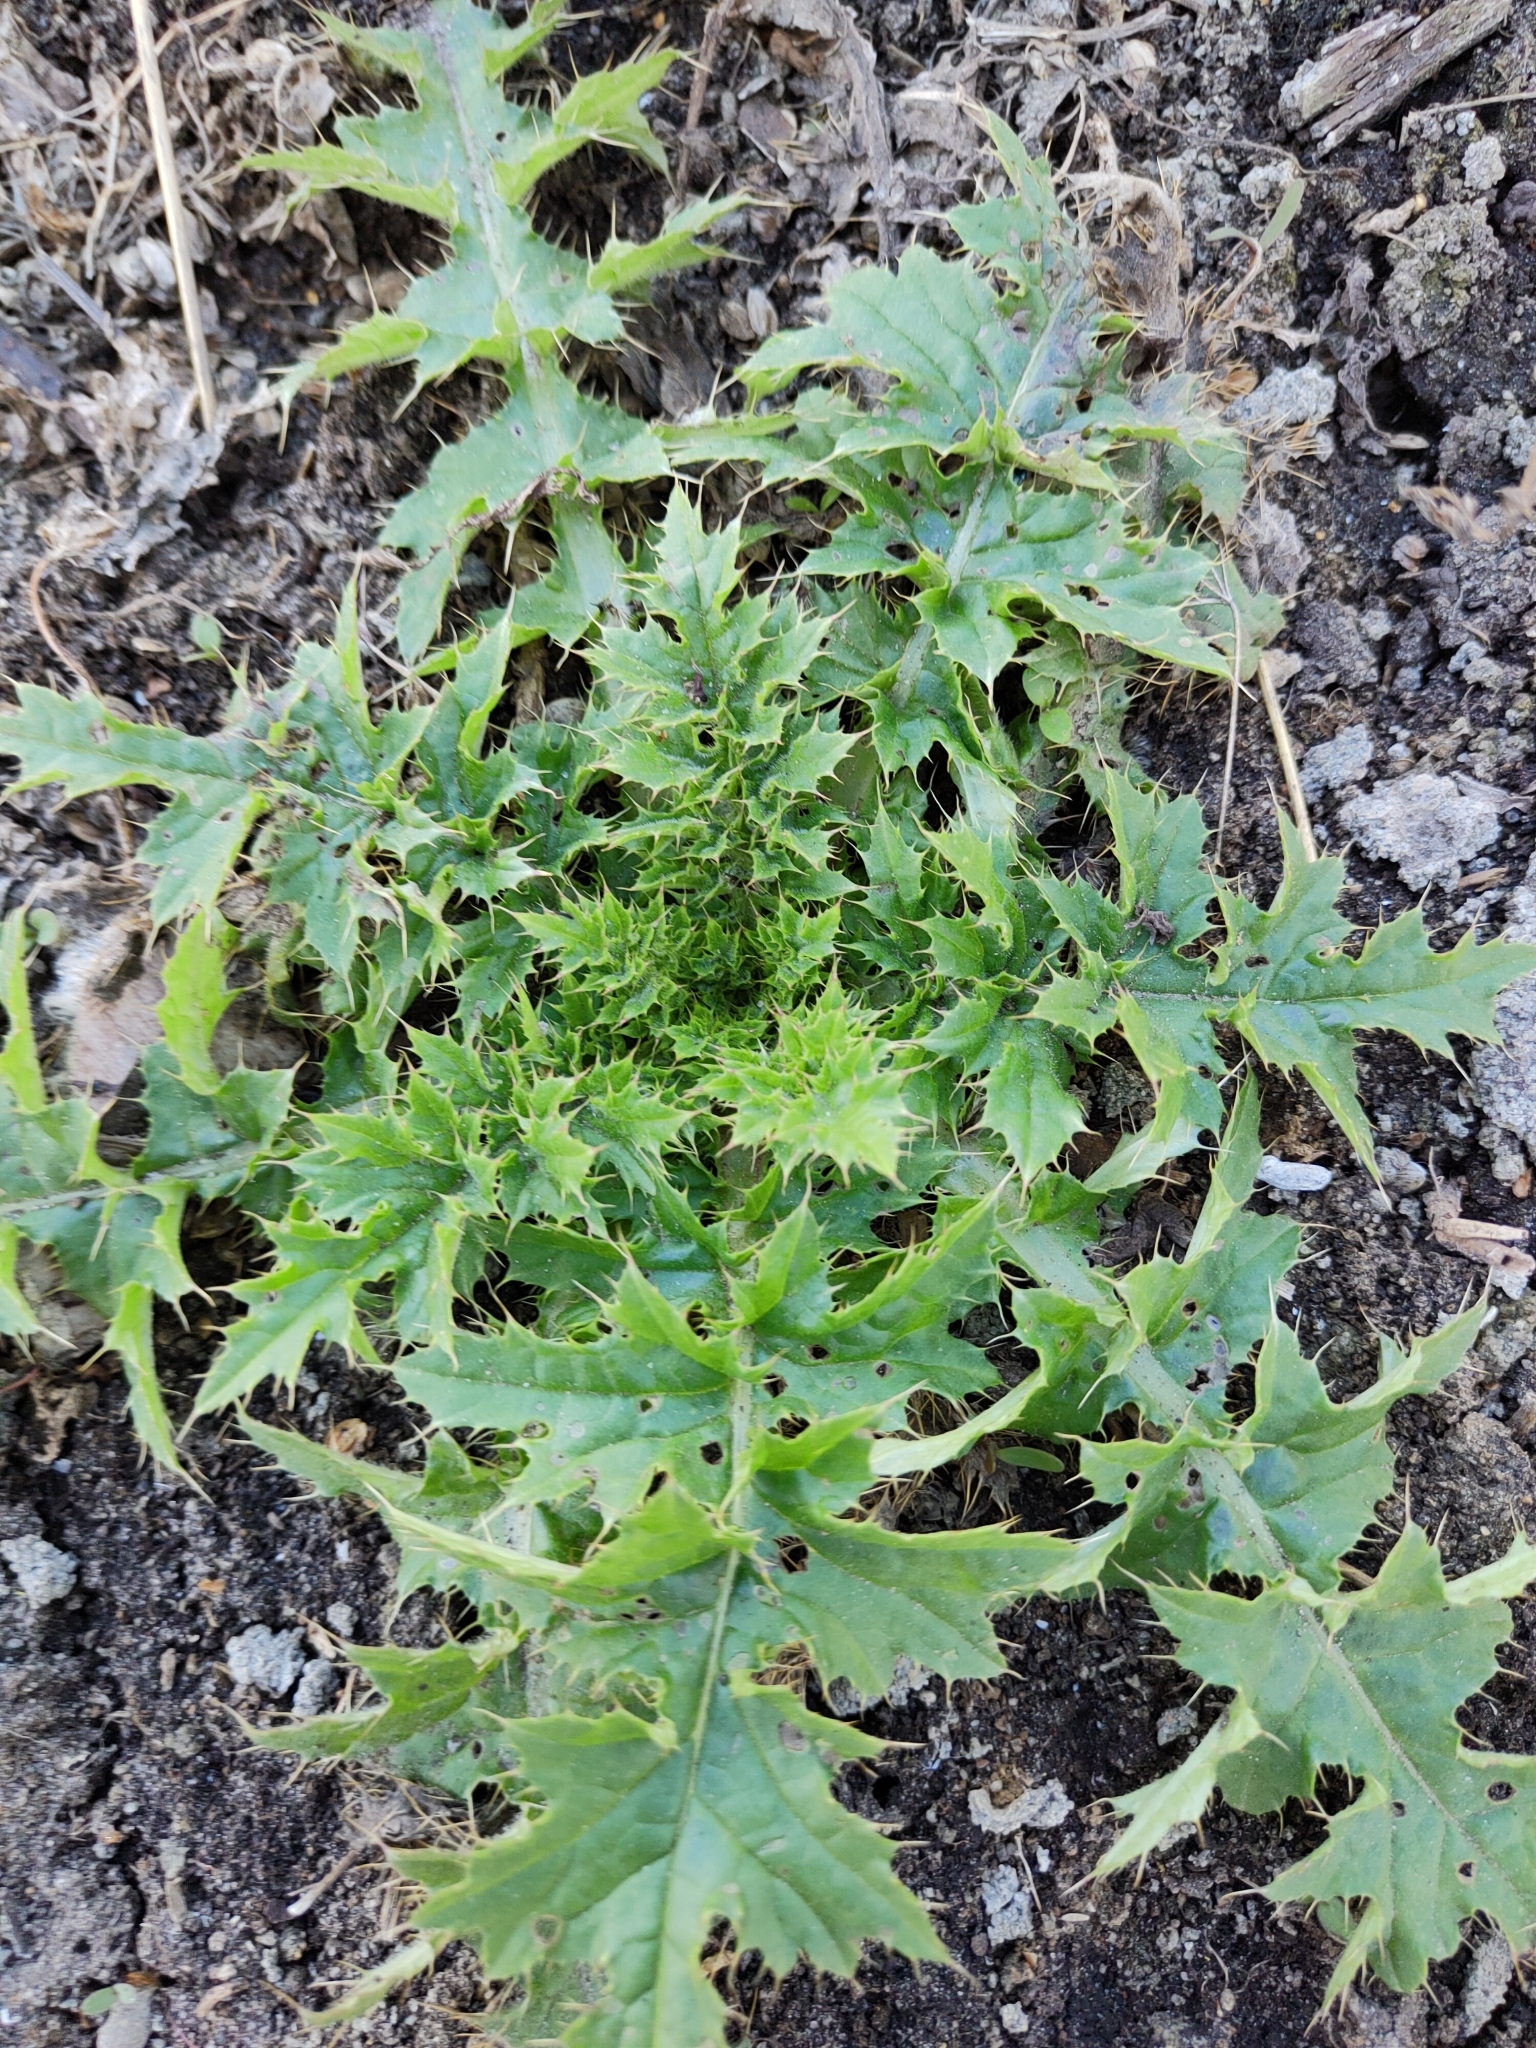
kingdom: Plantae
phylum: Tracheophyta
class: Magnoliopsida
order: Asterales
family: Asteraceae
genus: Carduus
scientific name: Carduus acanthoides
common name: Plumeless thistle
